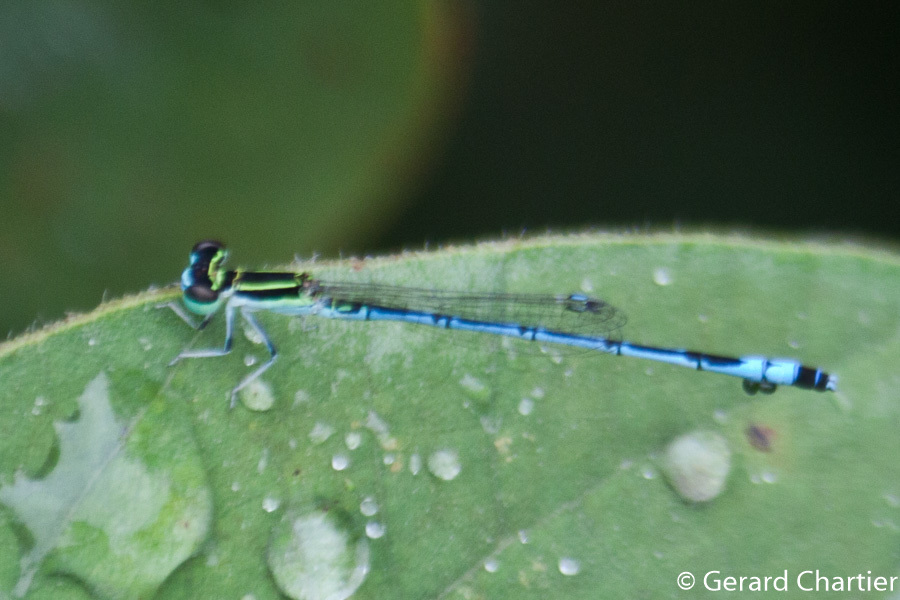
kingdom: Animalia
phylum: Arthropoda
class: Insecta
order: Odonata
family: Coenagrionidae
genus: Agriocnemis
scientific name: Agriocnemis nana
